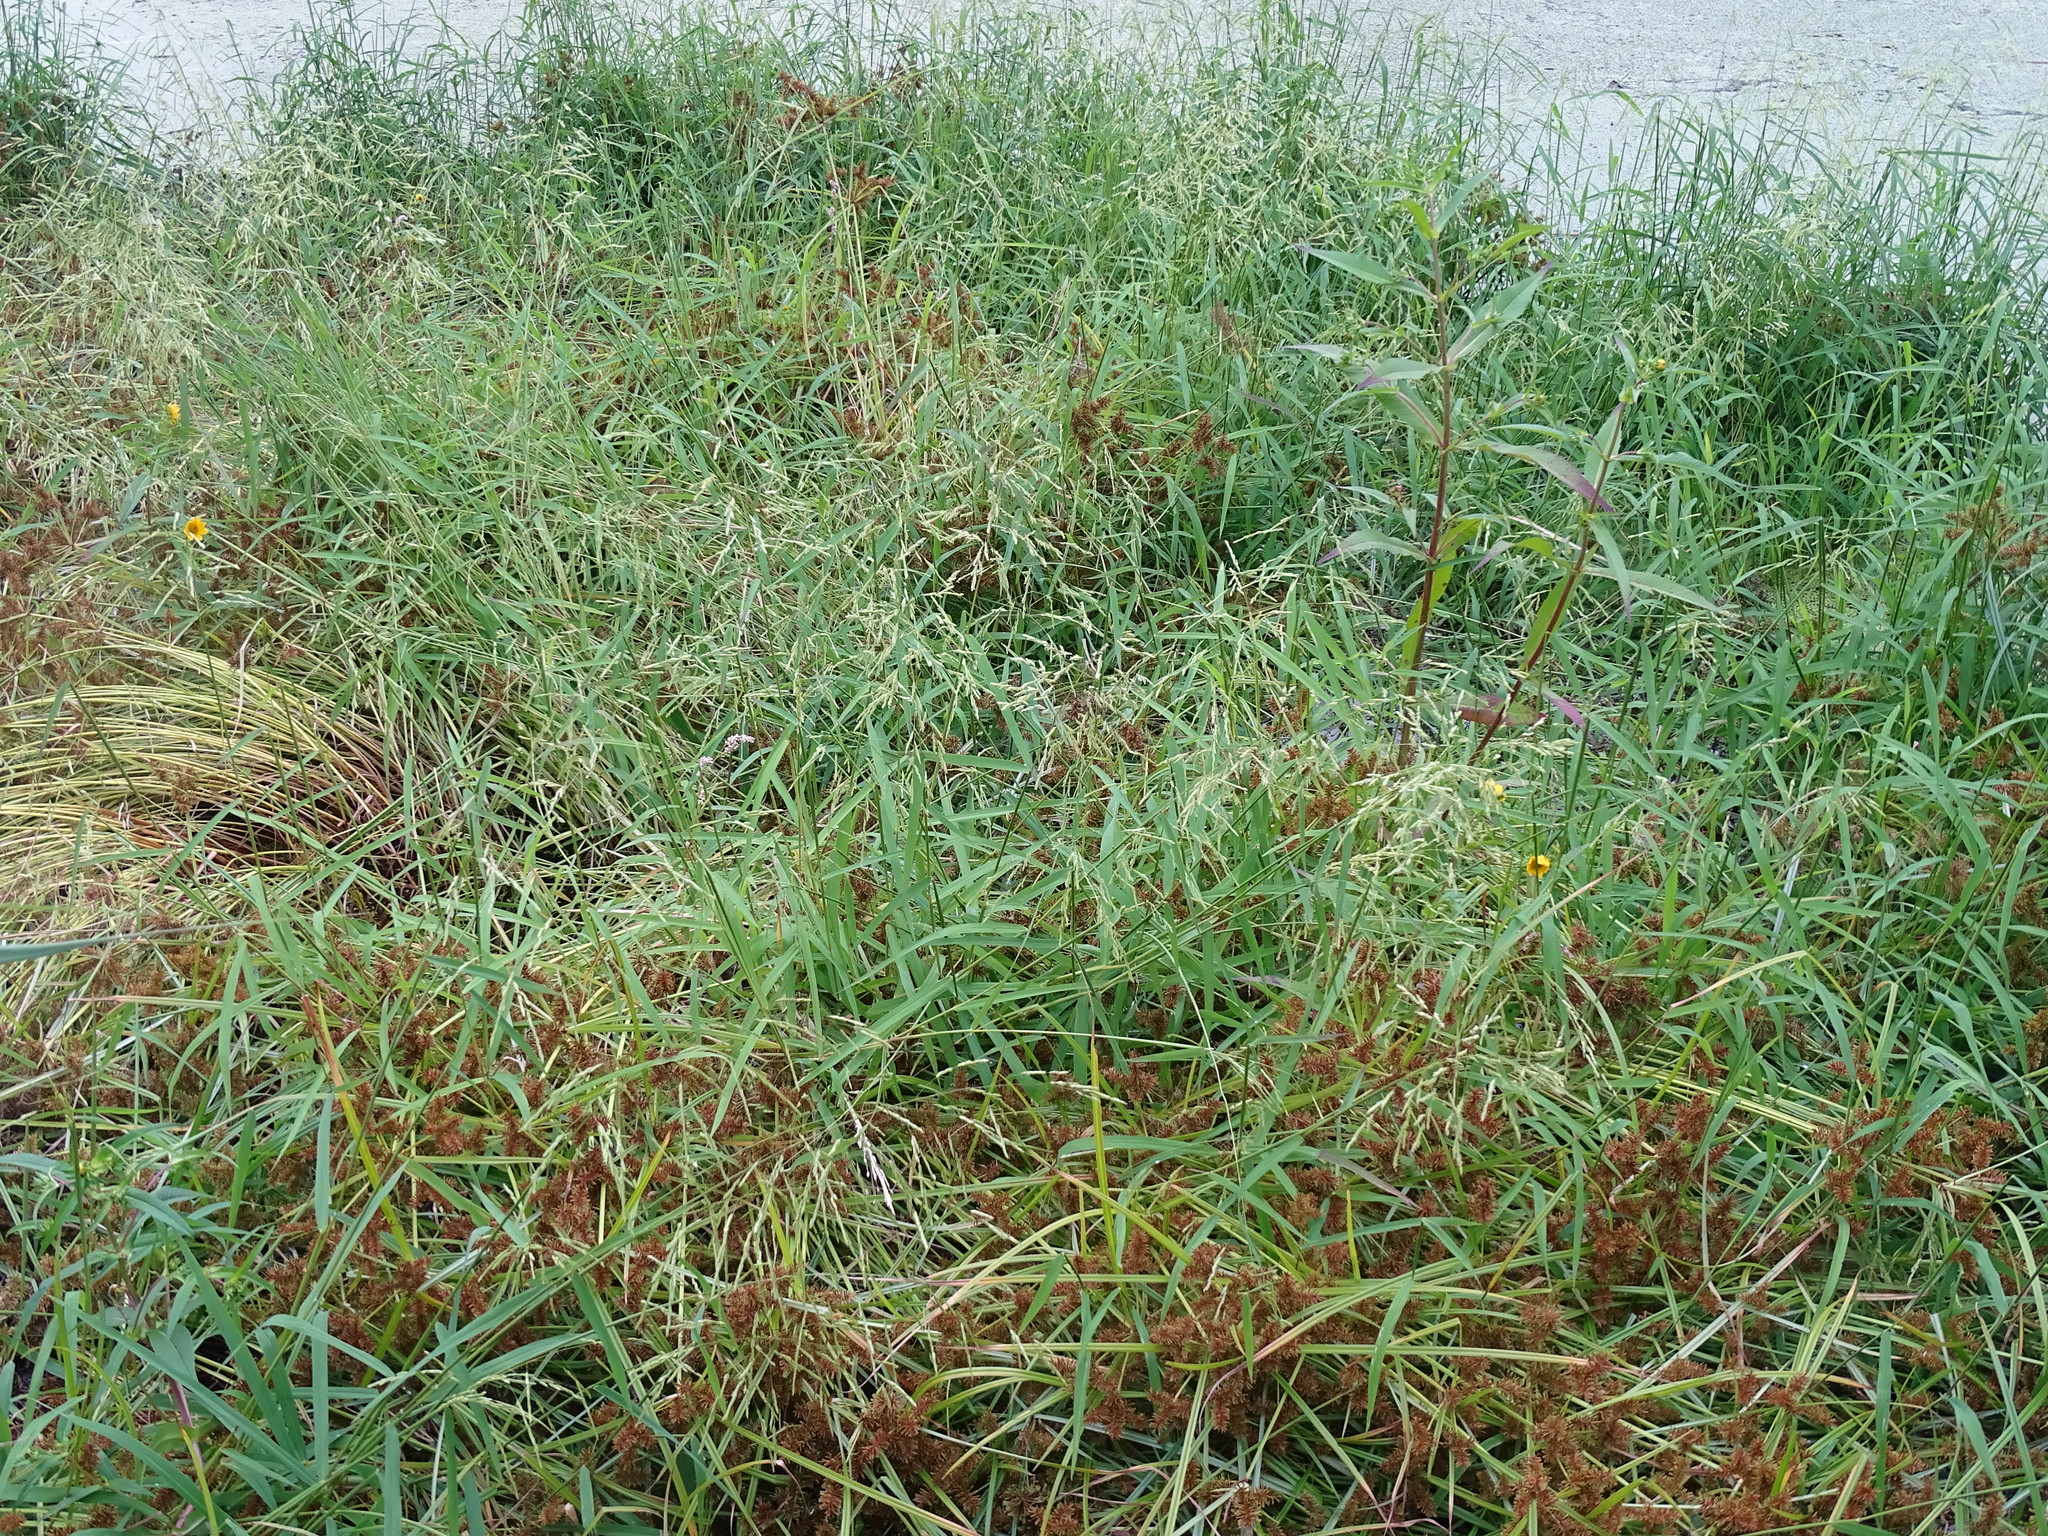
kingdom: Plantae
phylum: Tracheophyta
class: Liliopsida
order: Poales
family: Poaceae
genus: Leersia
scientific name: Leersia oryzoides
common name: Cut-grass
